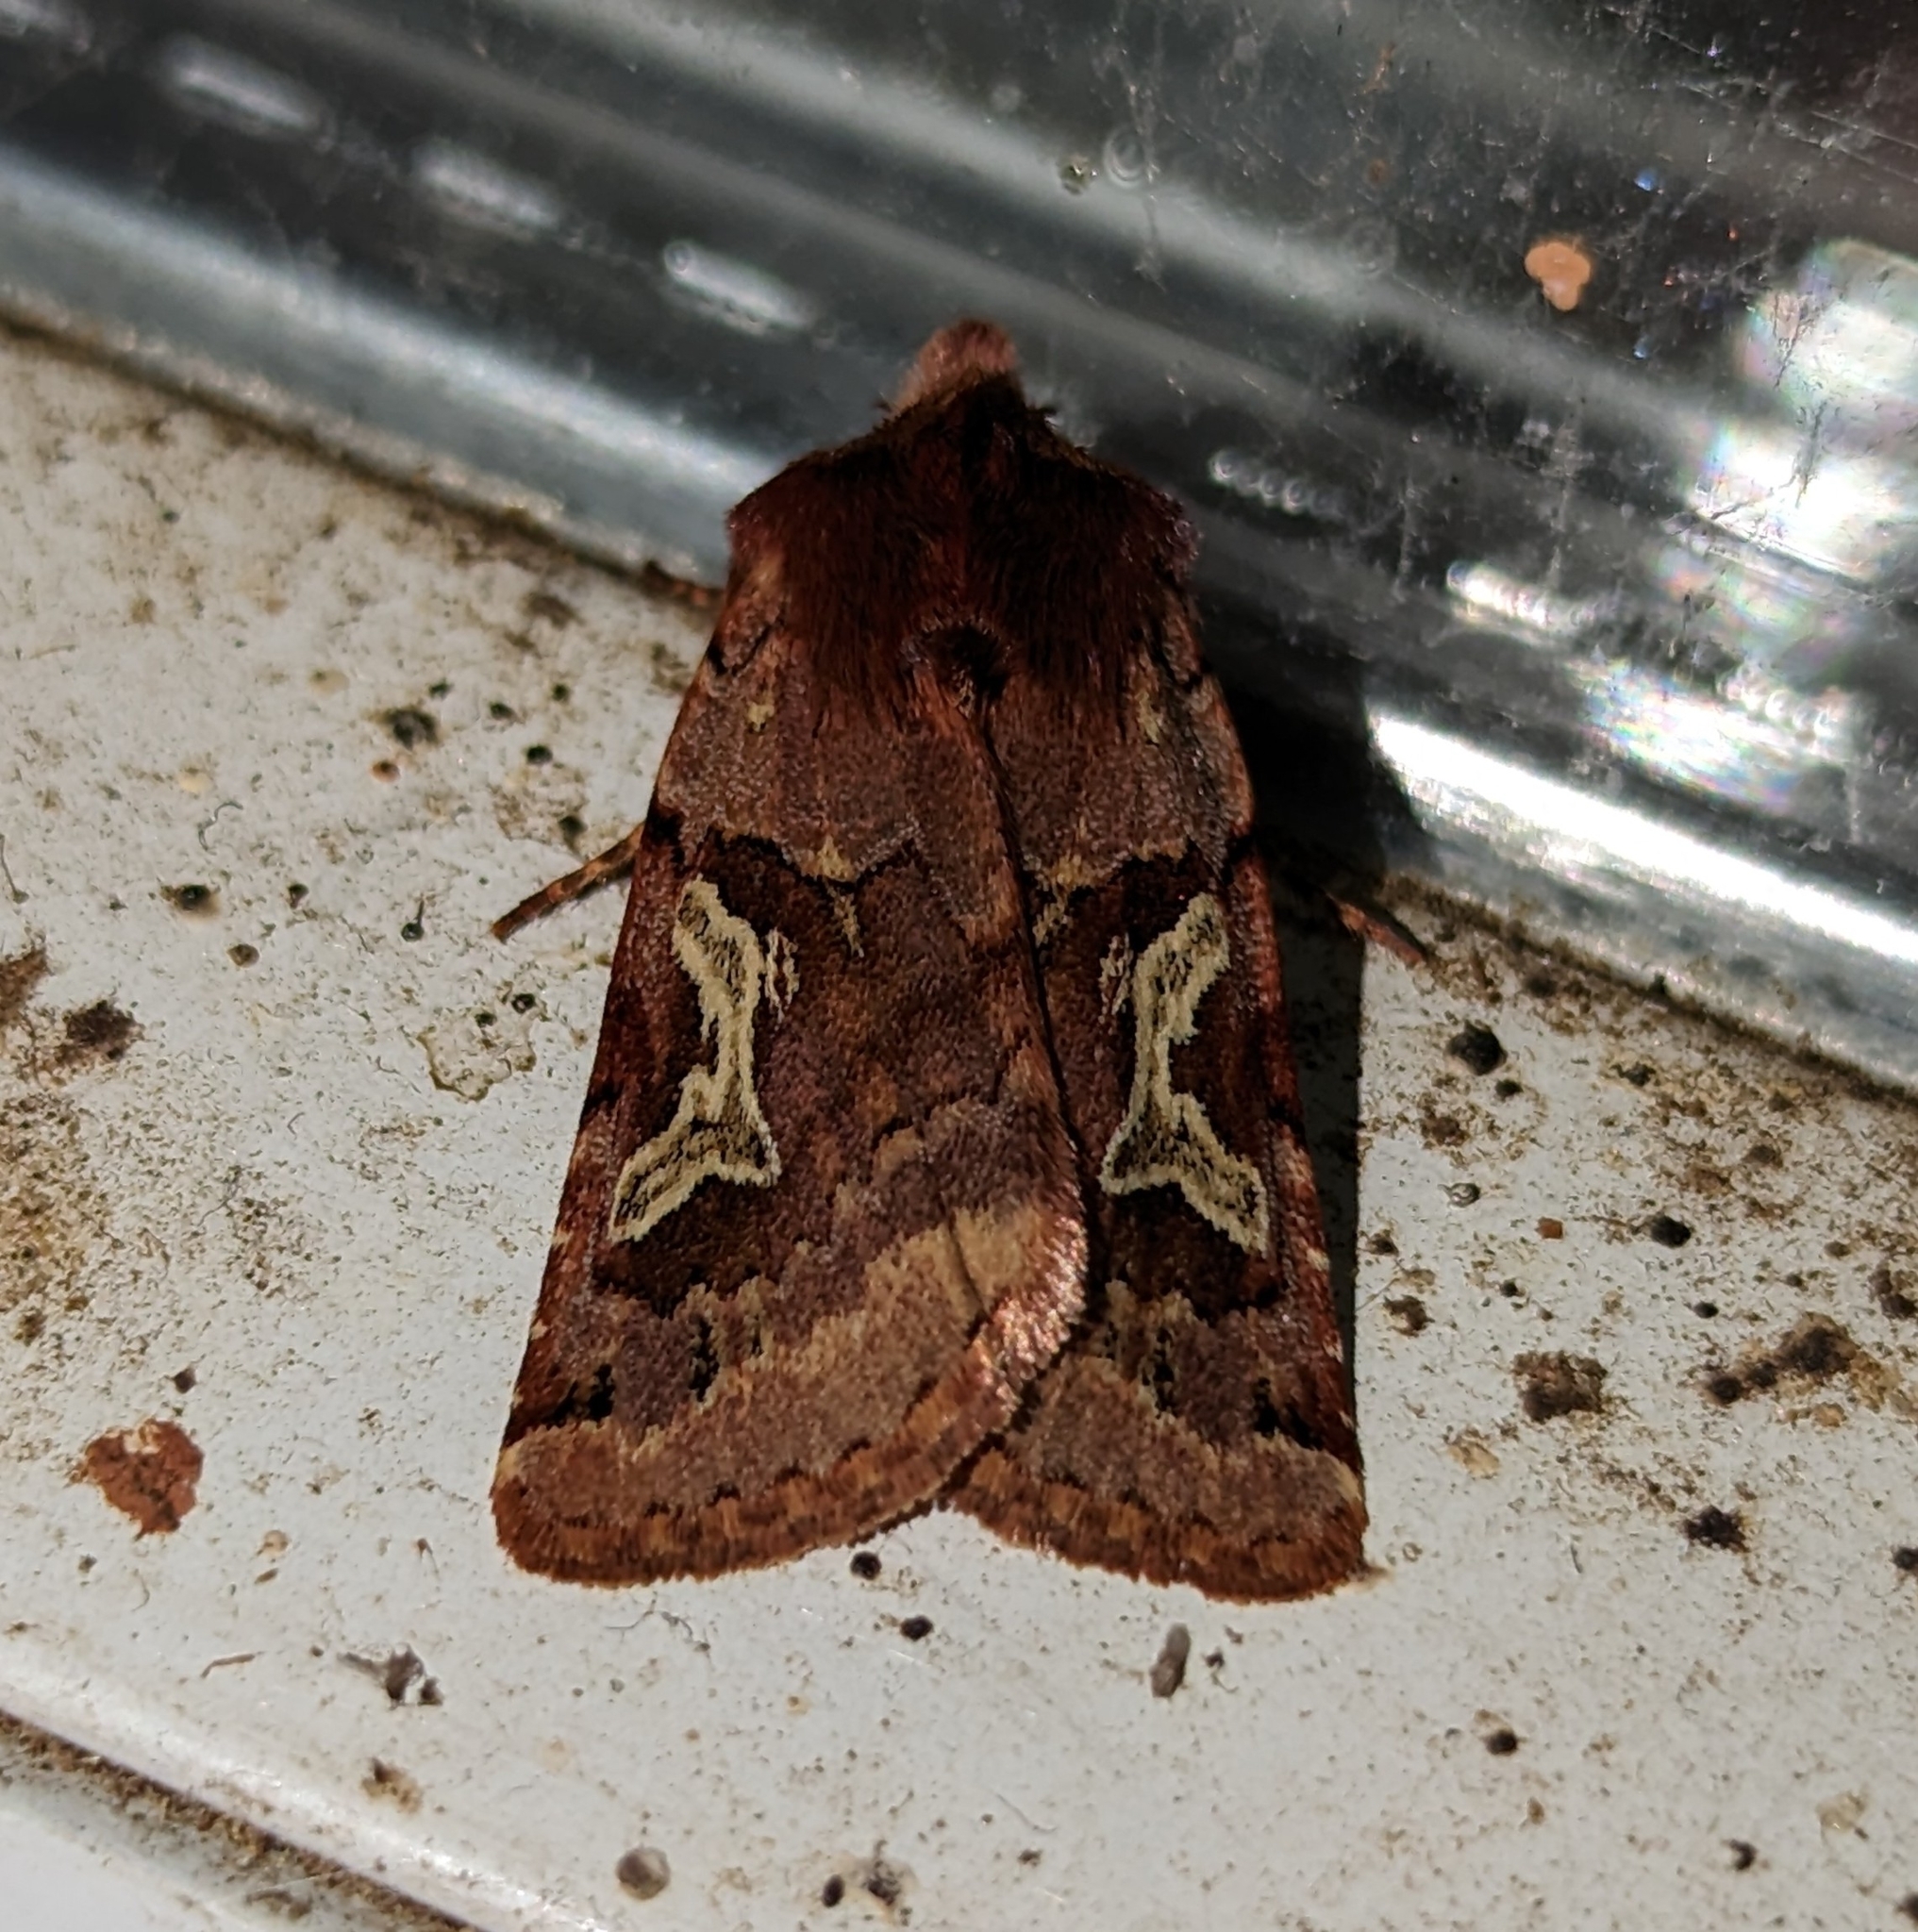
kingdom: Animalia
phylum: Arthropoda
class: Insecta
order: Lepidoptera
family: Noctuidae
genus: Cerastis
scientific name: Cerastis enigmatica
